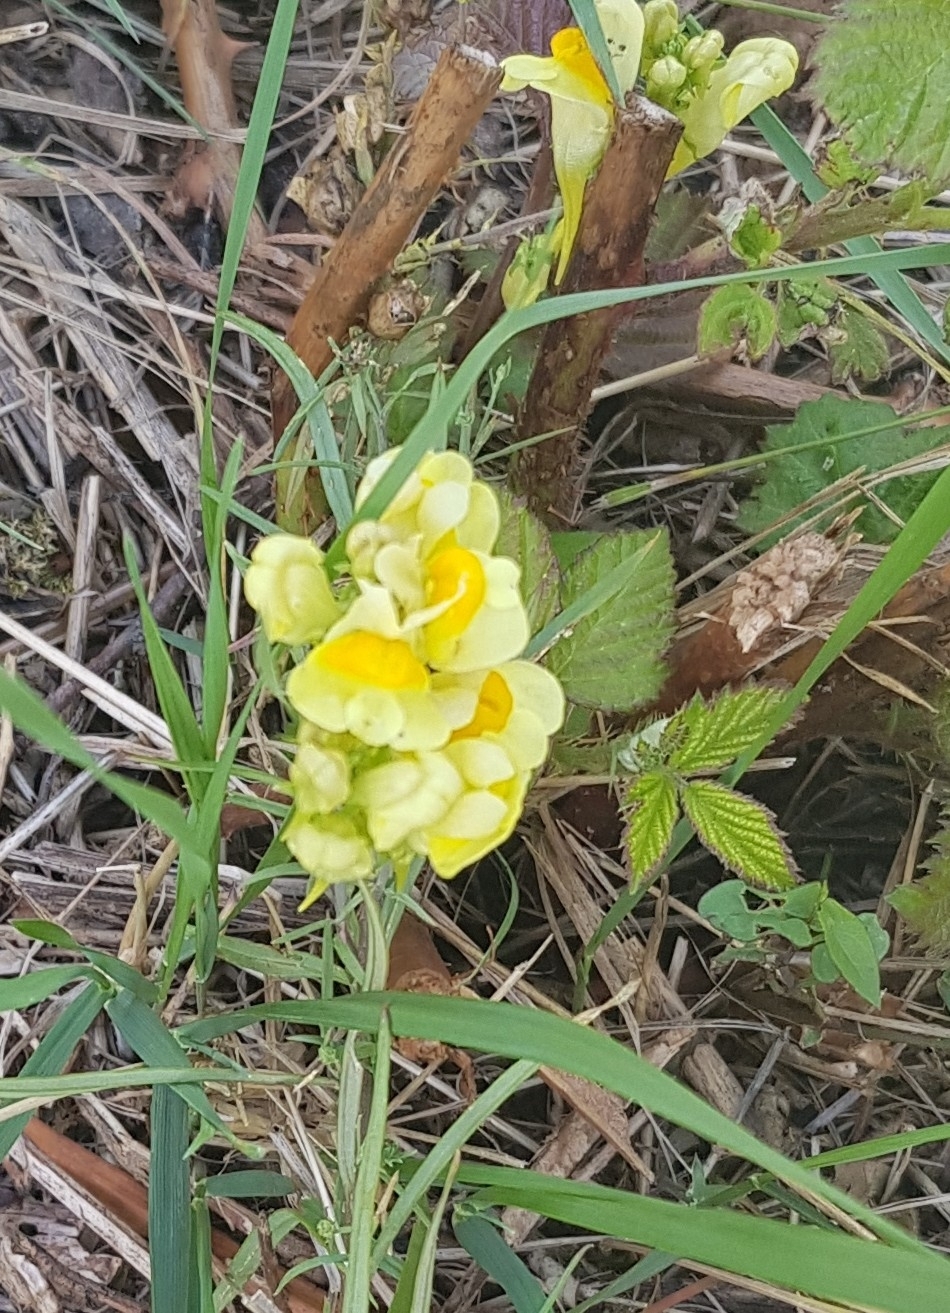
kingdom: Plantae
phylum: Tracheophyta
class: Magnoliopsida
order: Lamiales
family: Plantaginaceae
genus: Linaria
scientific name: Linaria vulgaris
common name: Butter and eggs
